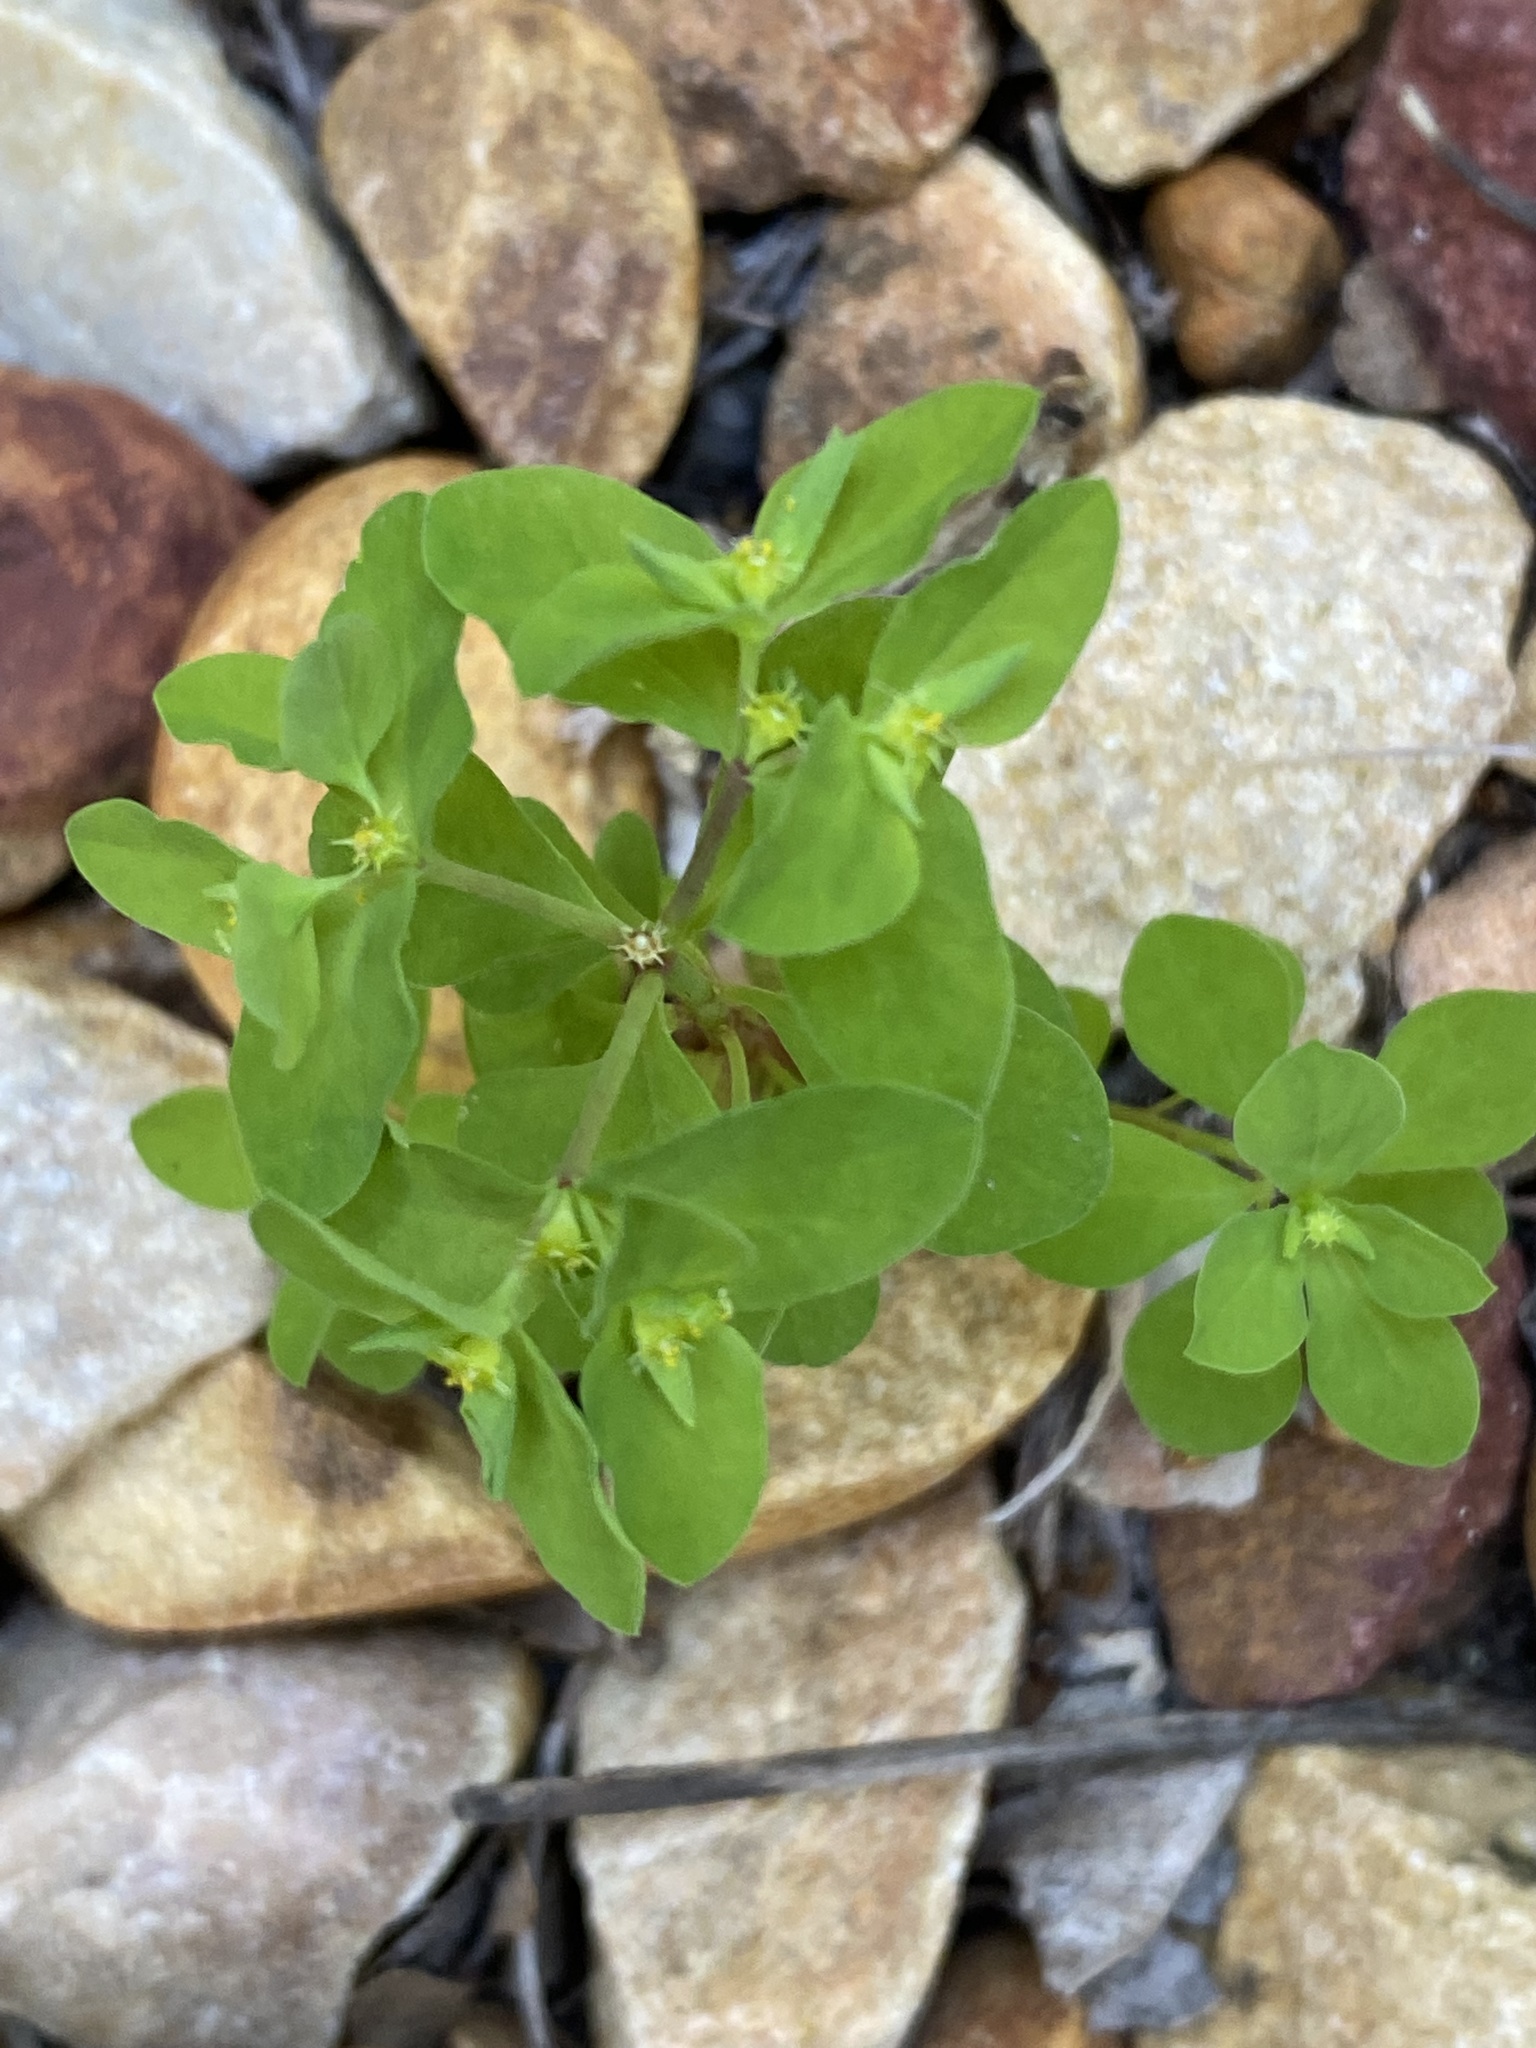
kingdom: Plantae
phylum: Tracheophyta
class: Magnoliopsida
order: Malpighiales
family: Euphorbiaceae
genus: Euphorbia
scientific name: Euphorbia peplus
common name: Petty spurge
